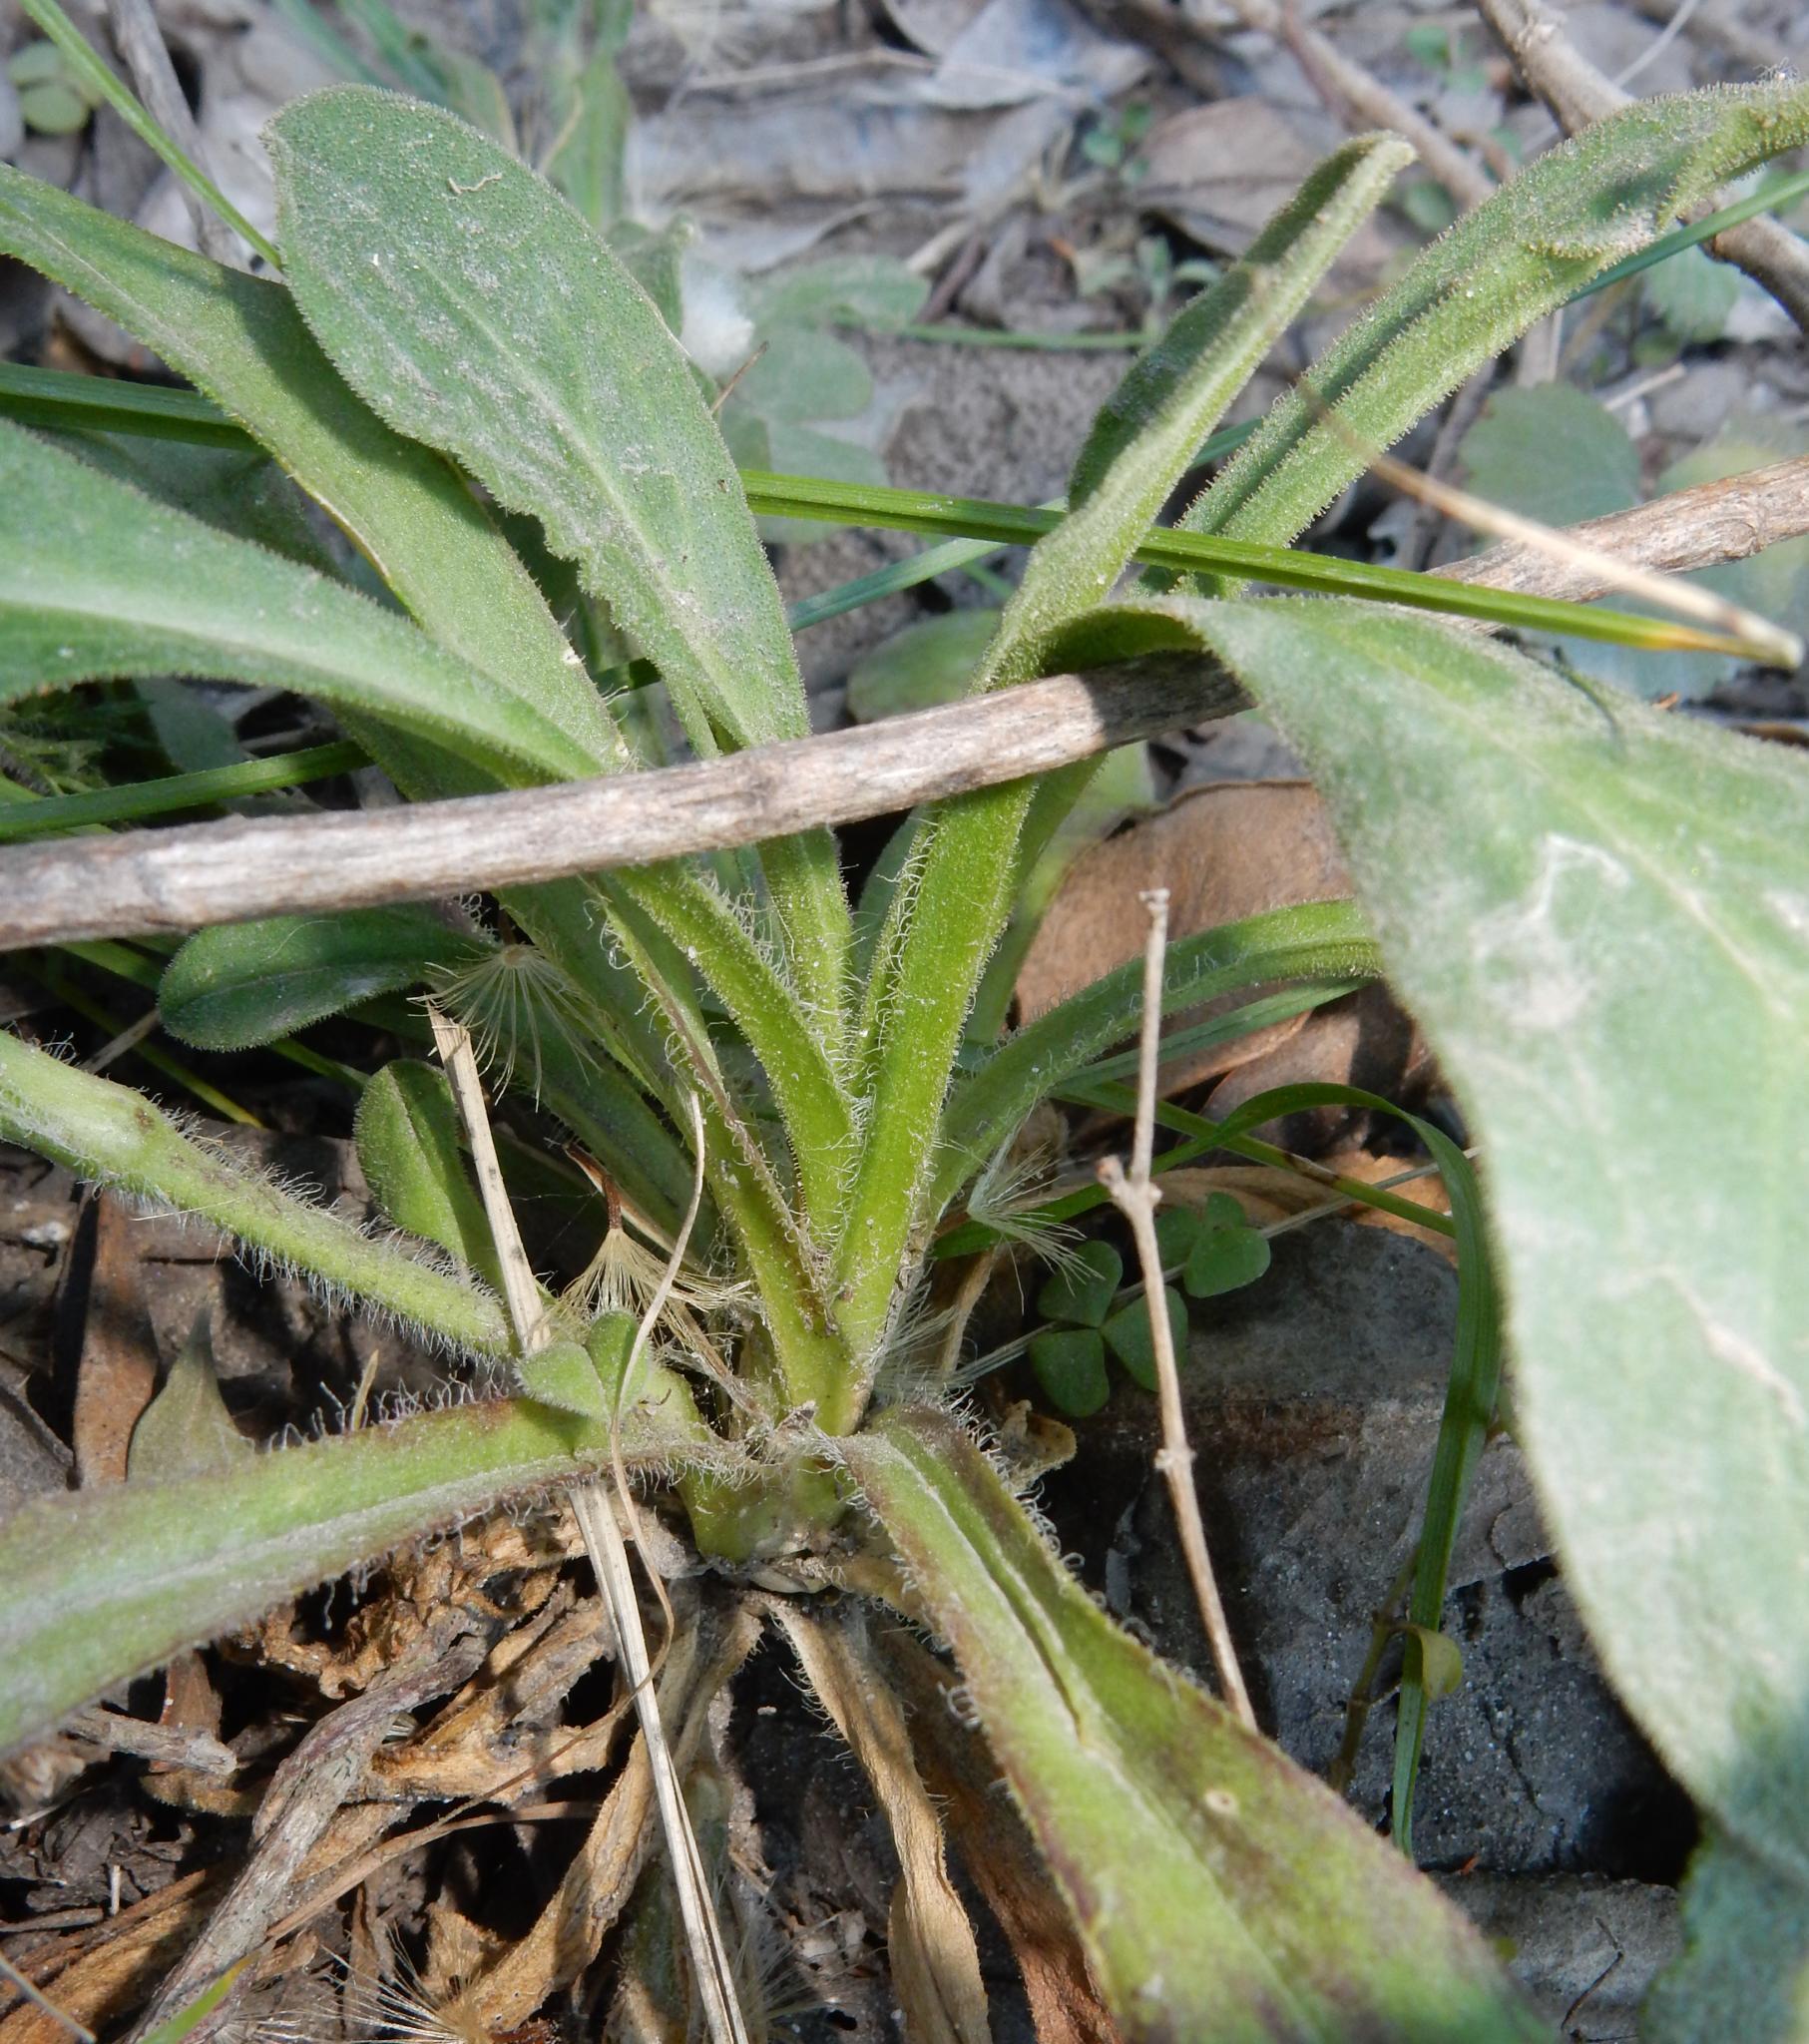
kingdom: Plantae
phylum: Tracheophyta
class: Magnoliopsida
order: Caryophyllales
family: Caryophyllaceae
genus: Silene
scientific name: Silene undulata
